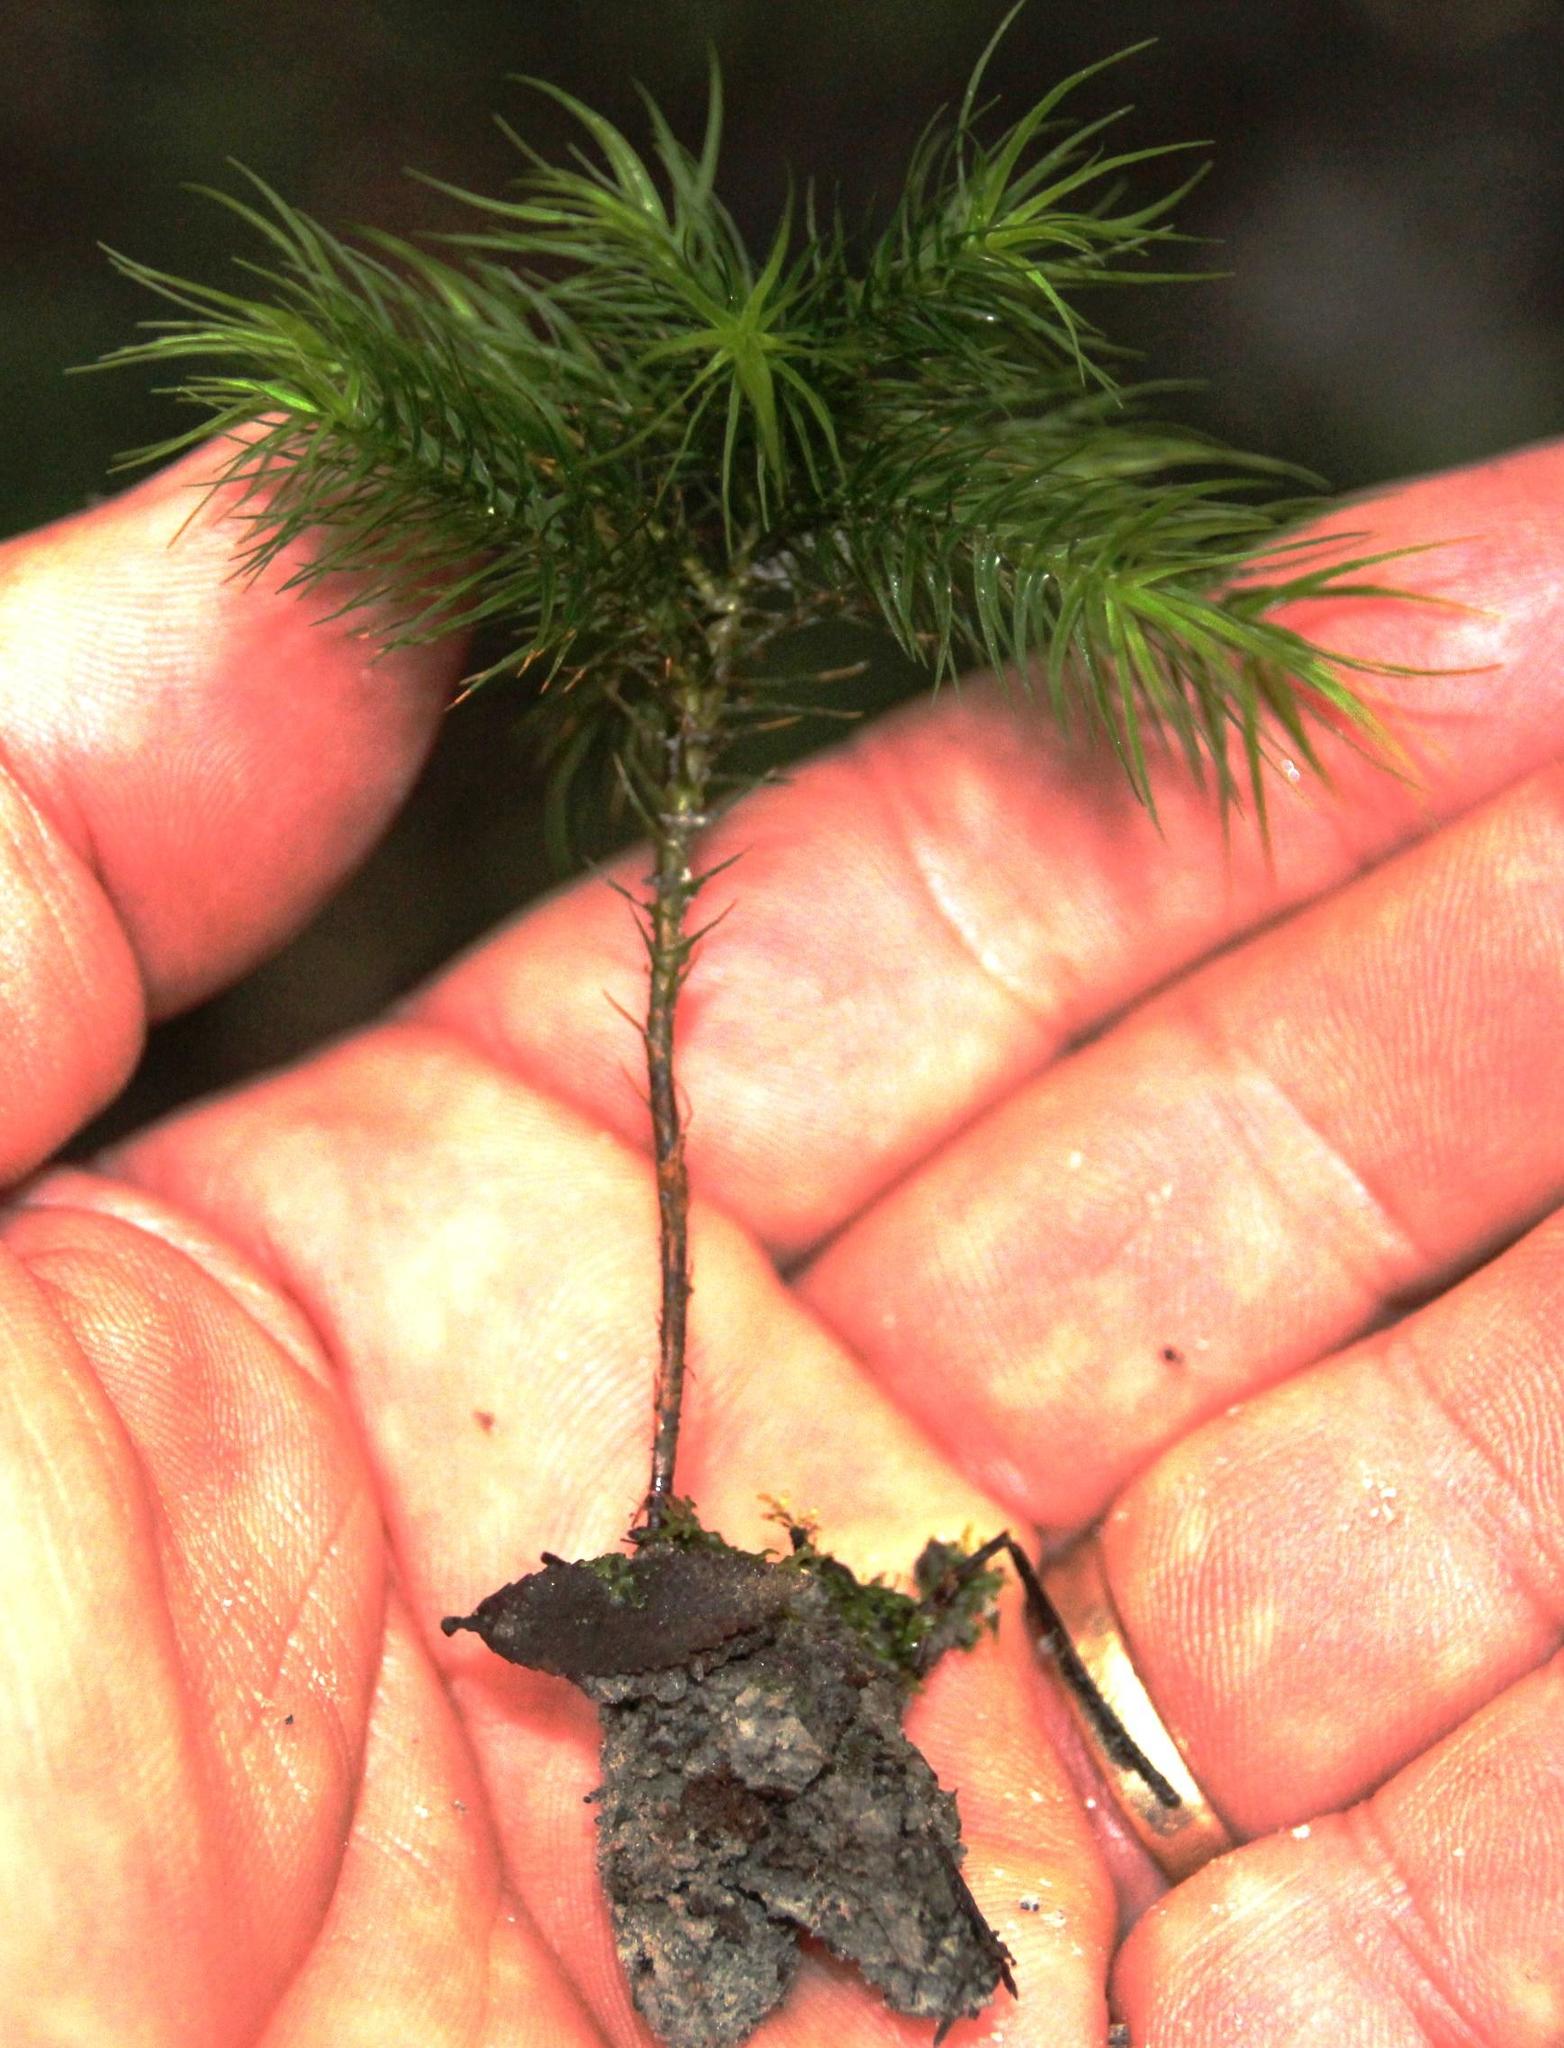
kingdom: Plantae
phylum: Bryophyta
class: Polytrichopsida
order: Polytrichales
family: Polytrichaceae
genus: Dendroligotrichum
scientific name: Dendroligotrichum dendroides
